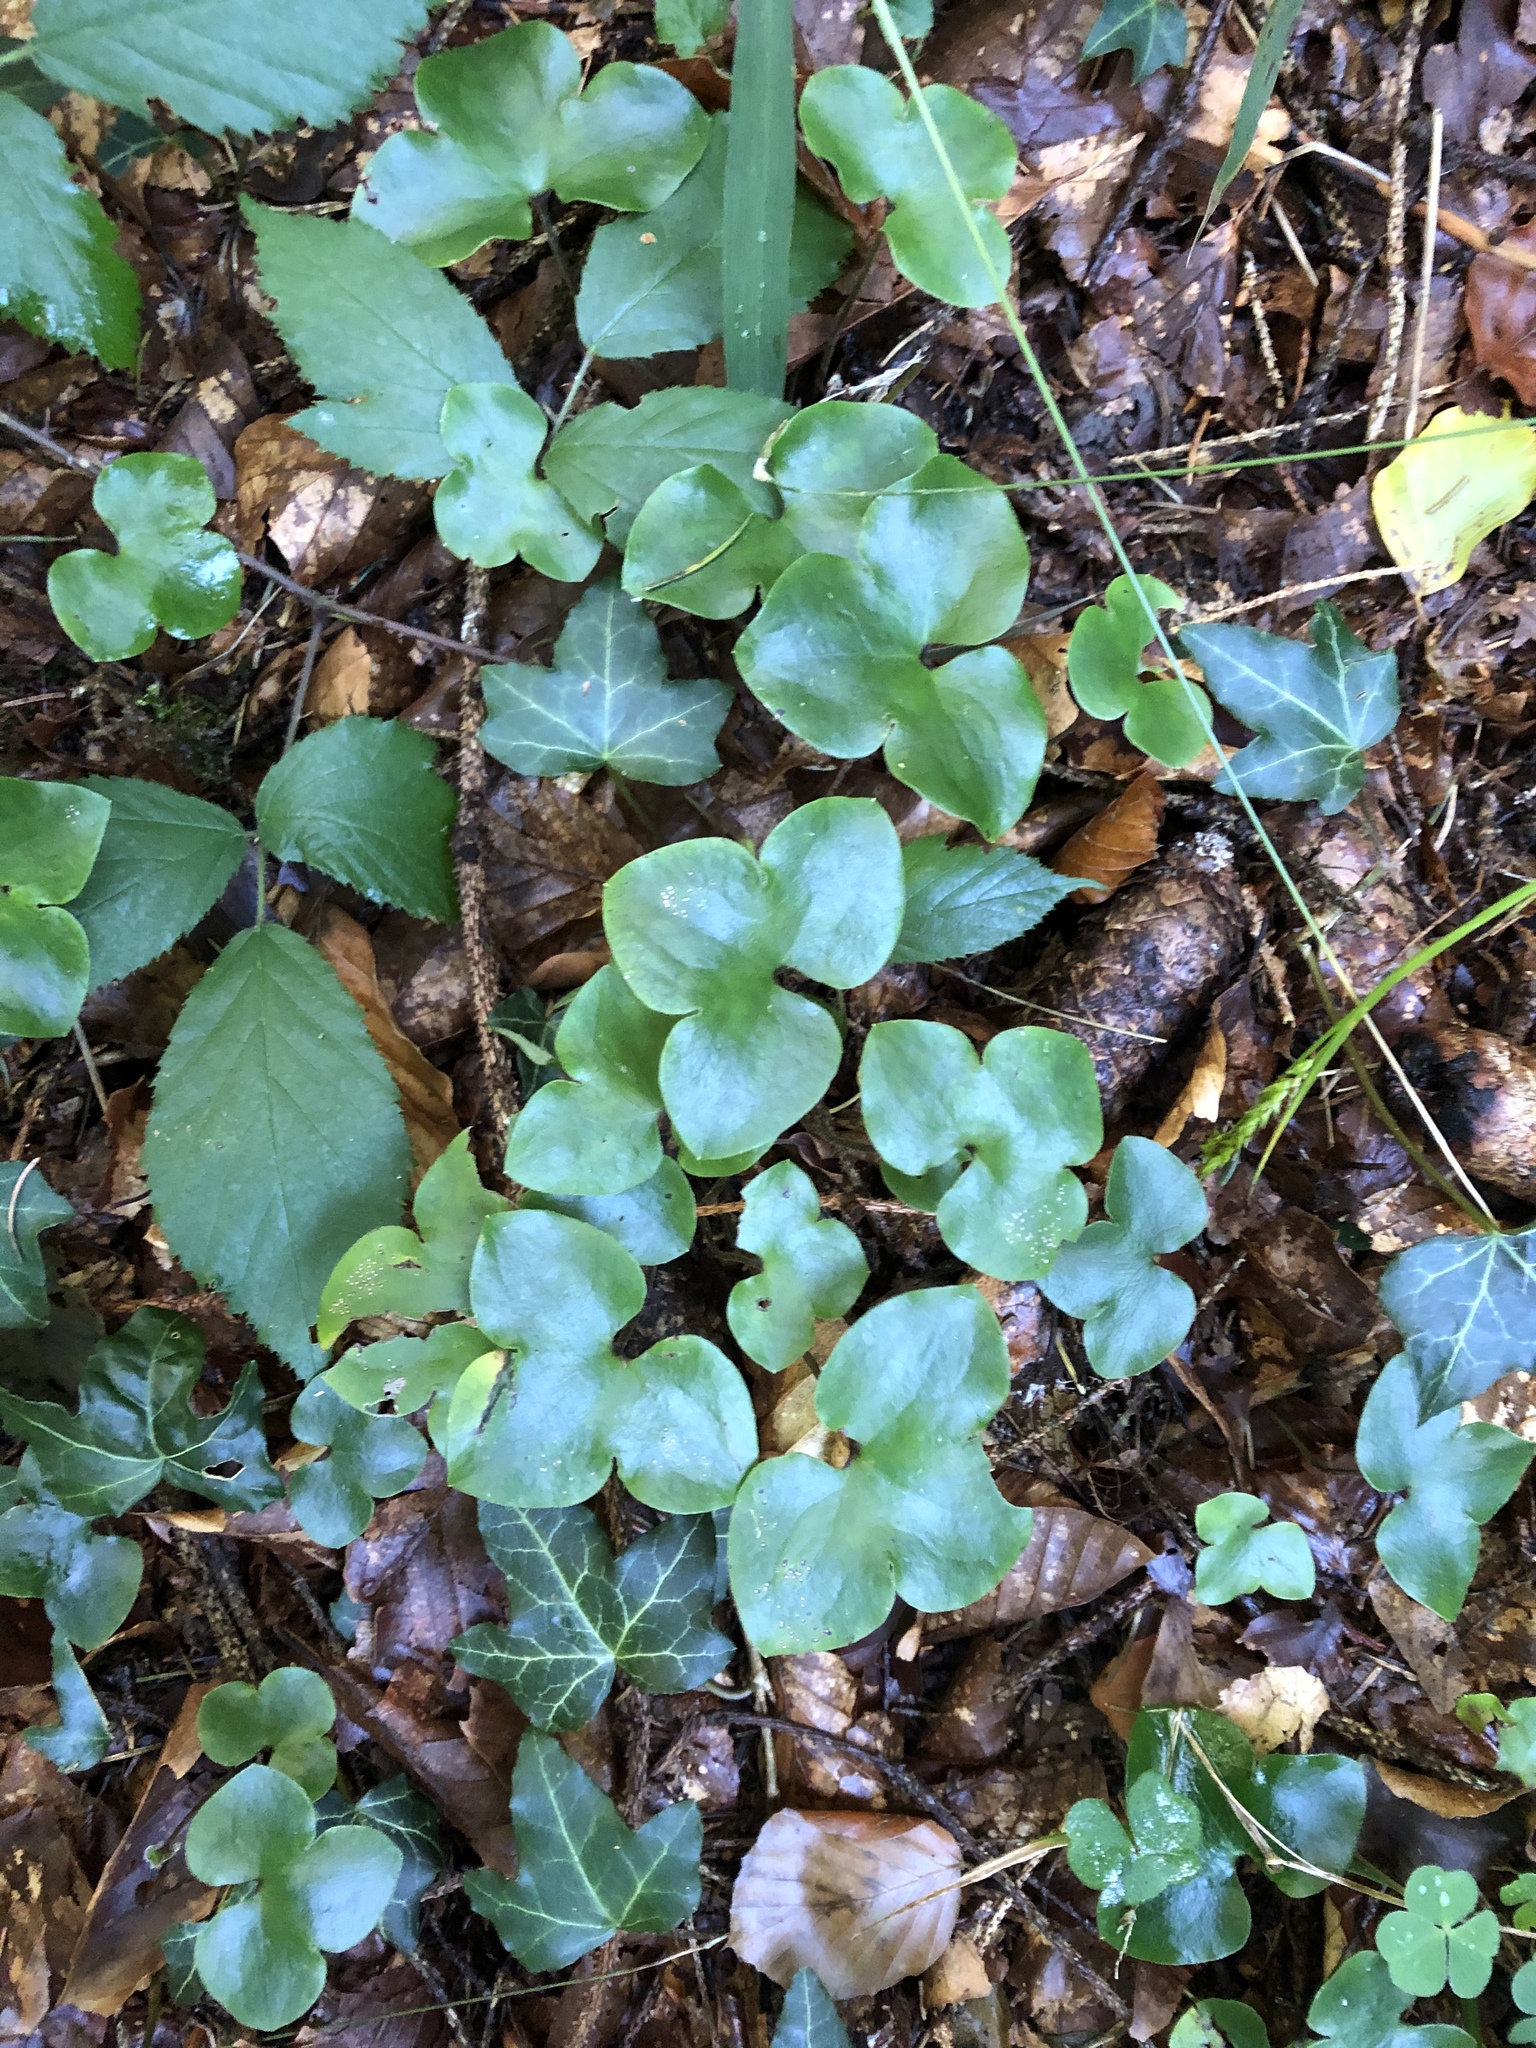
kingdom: Plantae
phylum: Tracheophyta
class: Magnoliopsida
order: Ranunculales
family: Ranunculaceae
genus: Hepatica
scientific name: Hepatica nobilis
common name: Liverleaf
